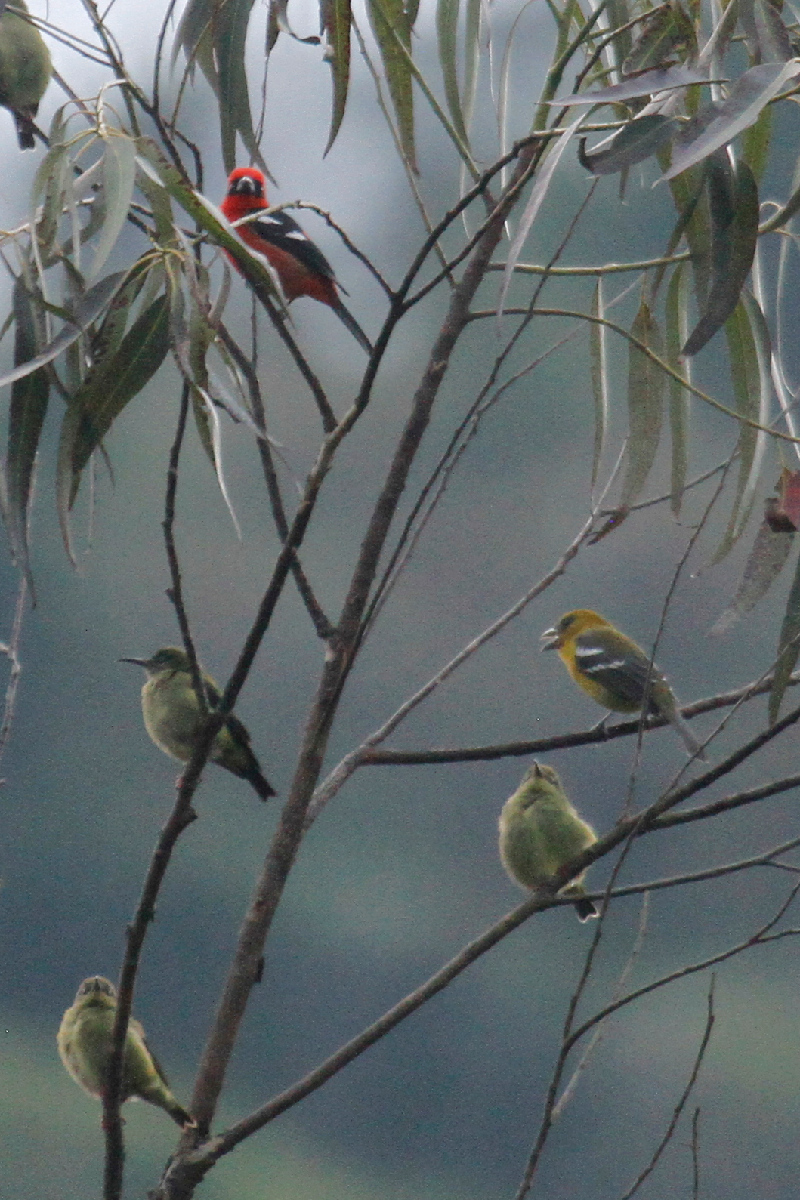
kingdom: Animalia
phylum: Chordata
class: Aves
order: Passeriformes
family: Cardinalidae
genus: Piranga
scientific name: Piranga leucoptera
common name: White-winged tanager
